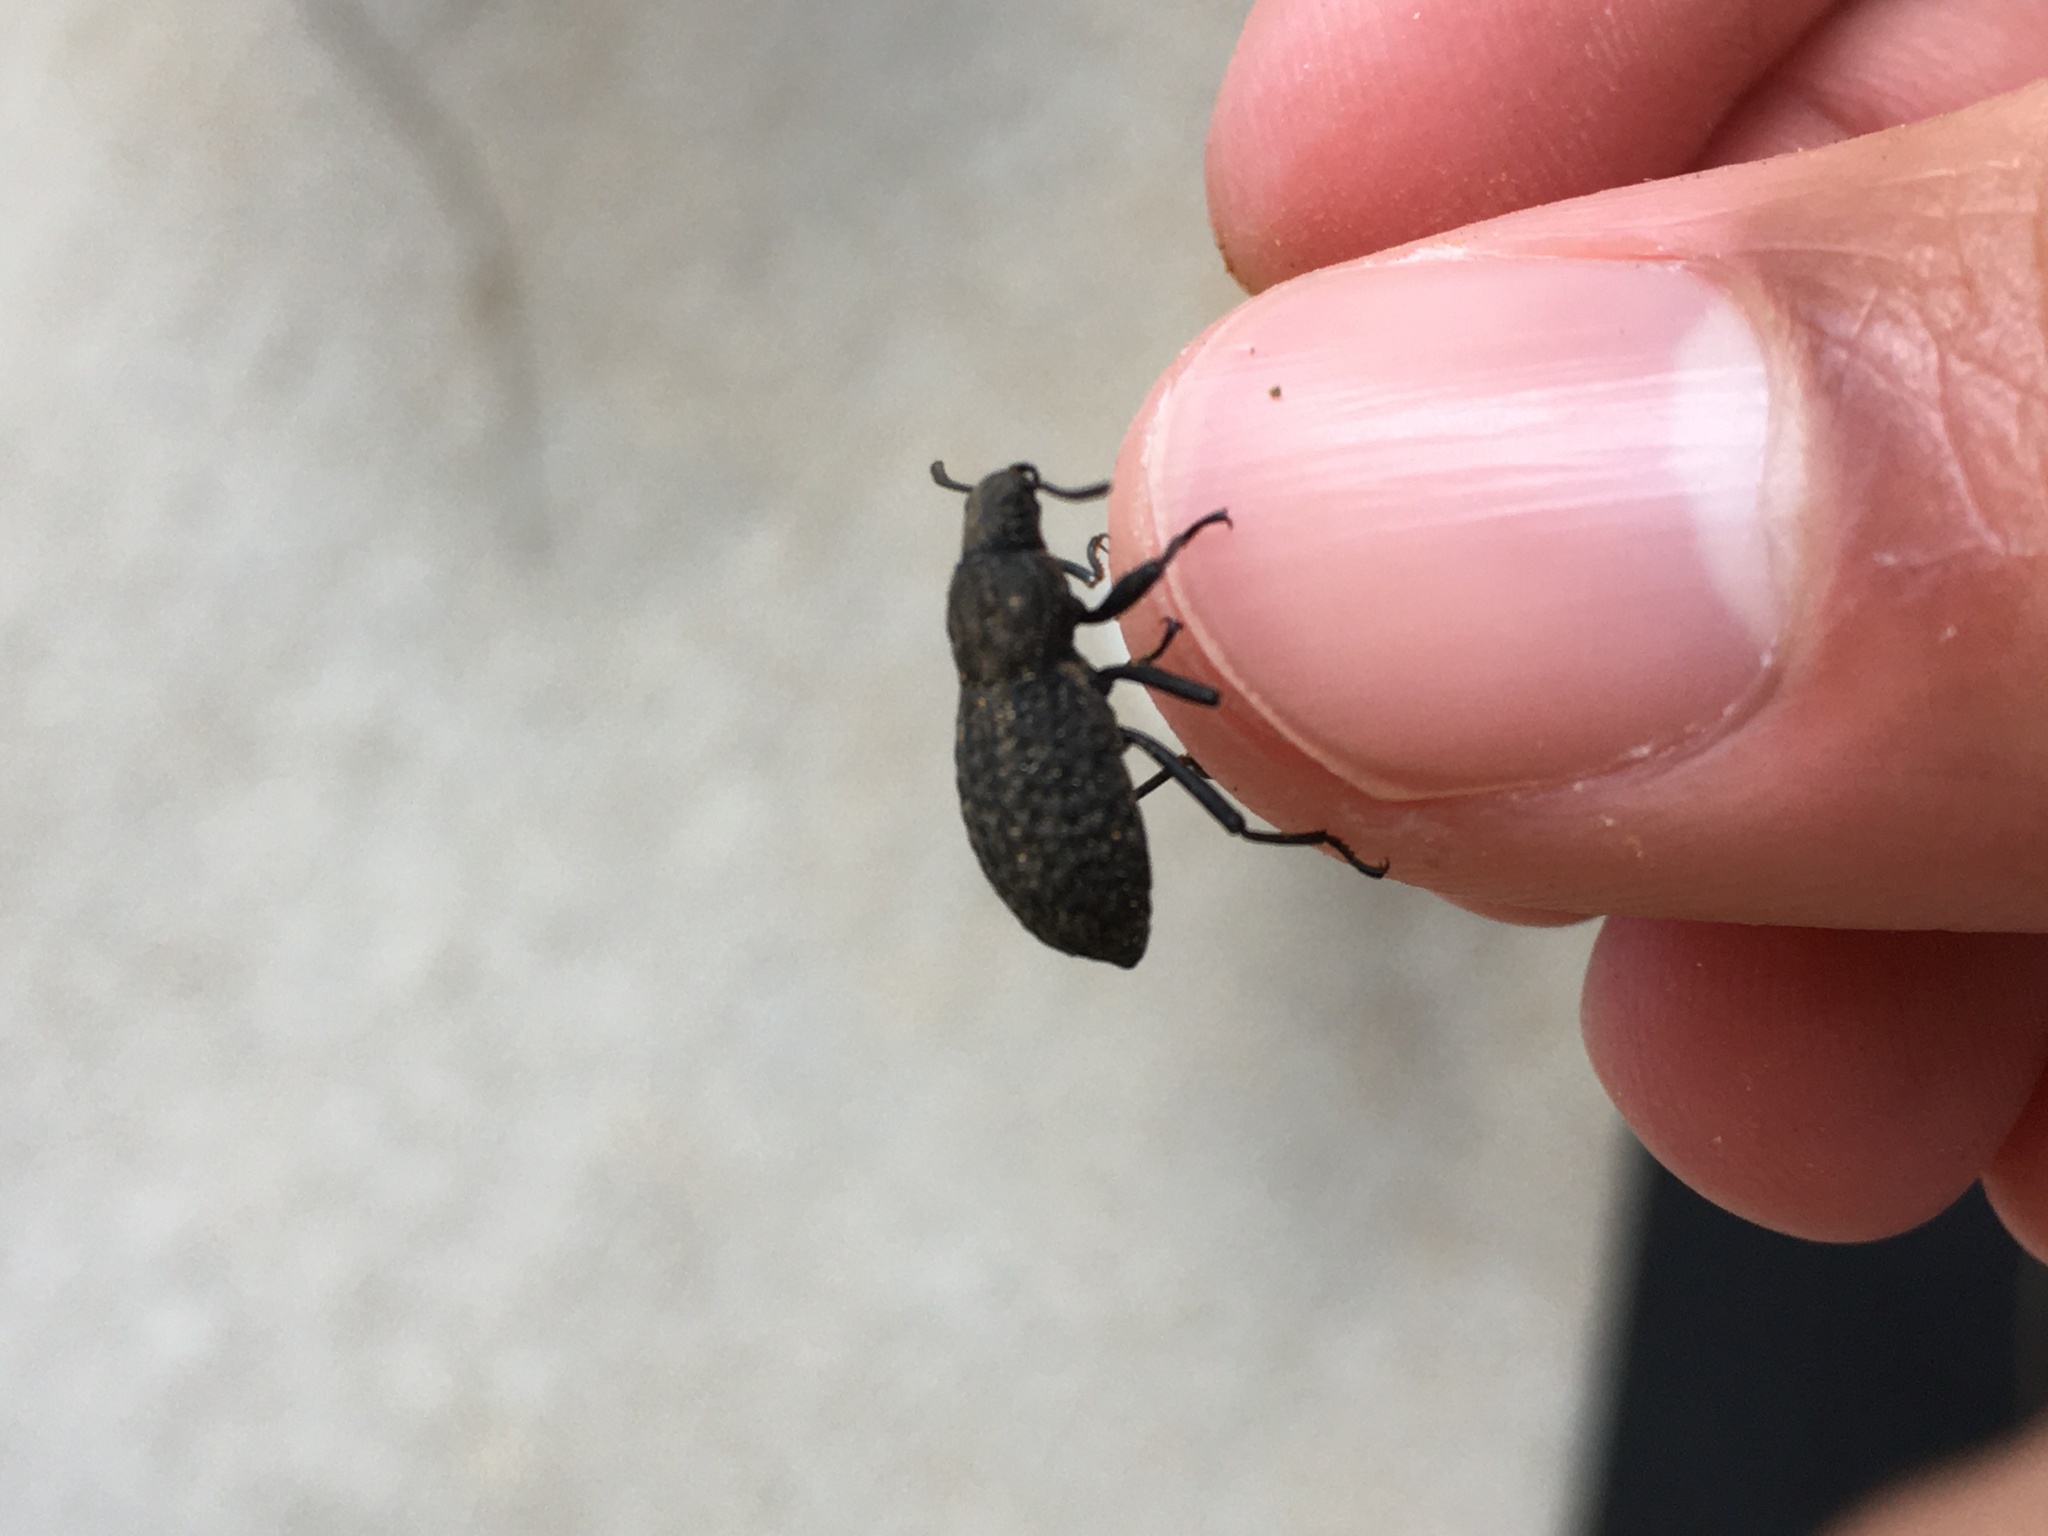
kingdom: Animalia
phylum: Arthropoda
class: Insecta
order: Coleoptera
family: Tenebrionidae
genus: Polypleurus
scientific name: Polypleurus perforatus
